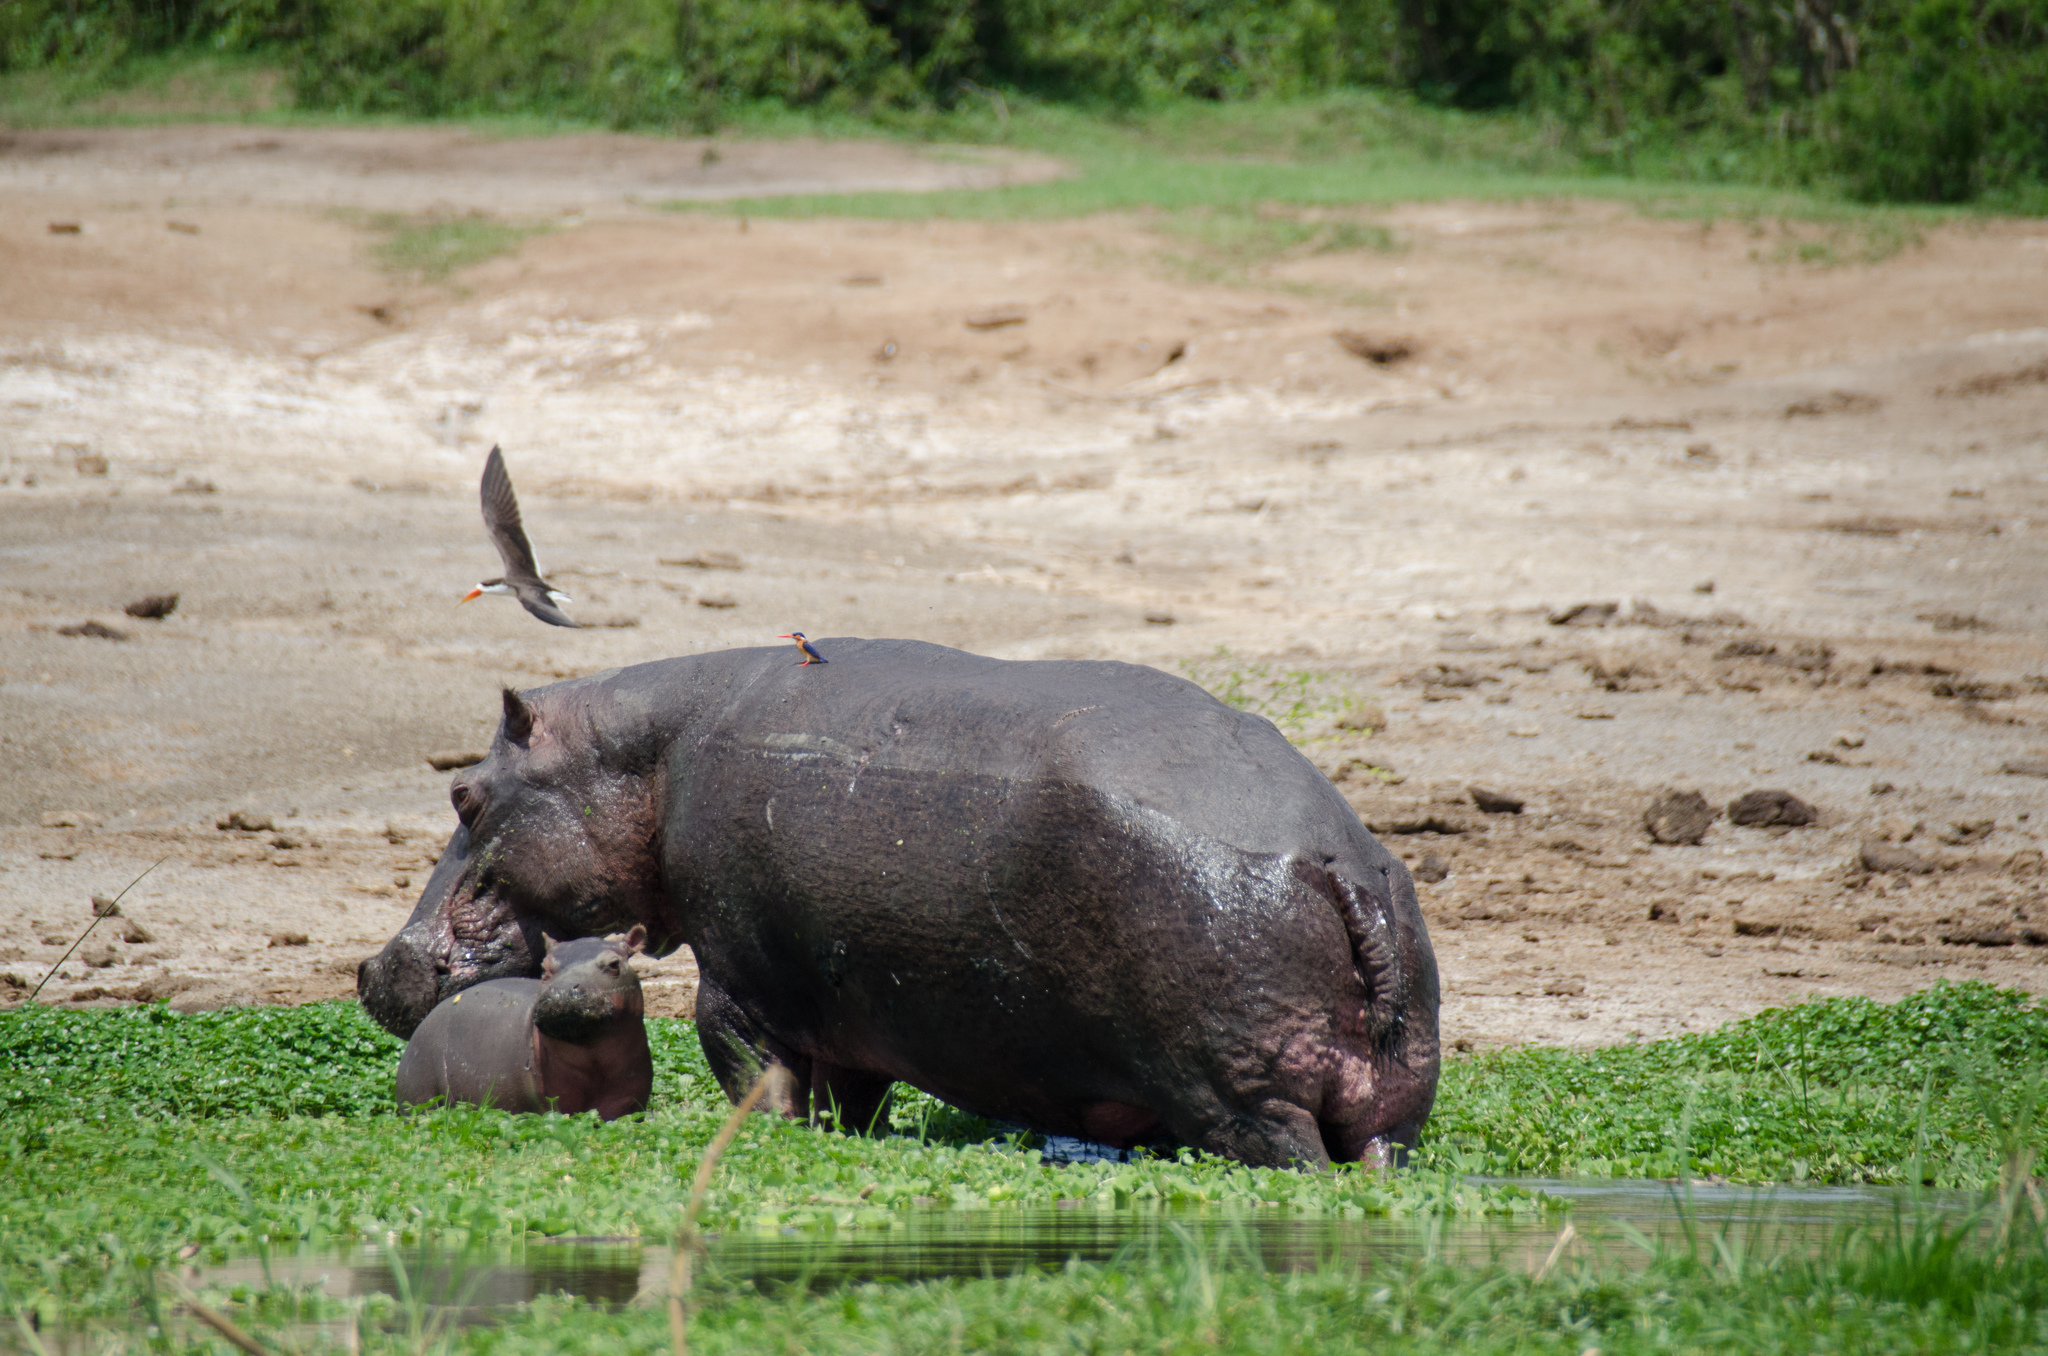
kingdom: Animalia
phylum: Chordata
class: Mammalia
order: Artiodactyla
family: Hippopotamidae
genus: Hippopotamus
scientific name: Hippopotamus amphibius
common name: Common hippopotamus
